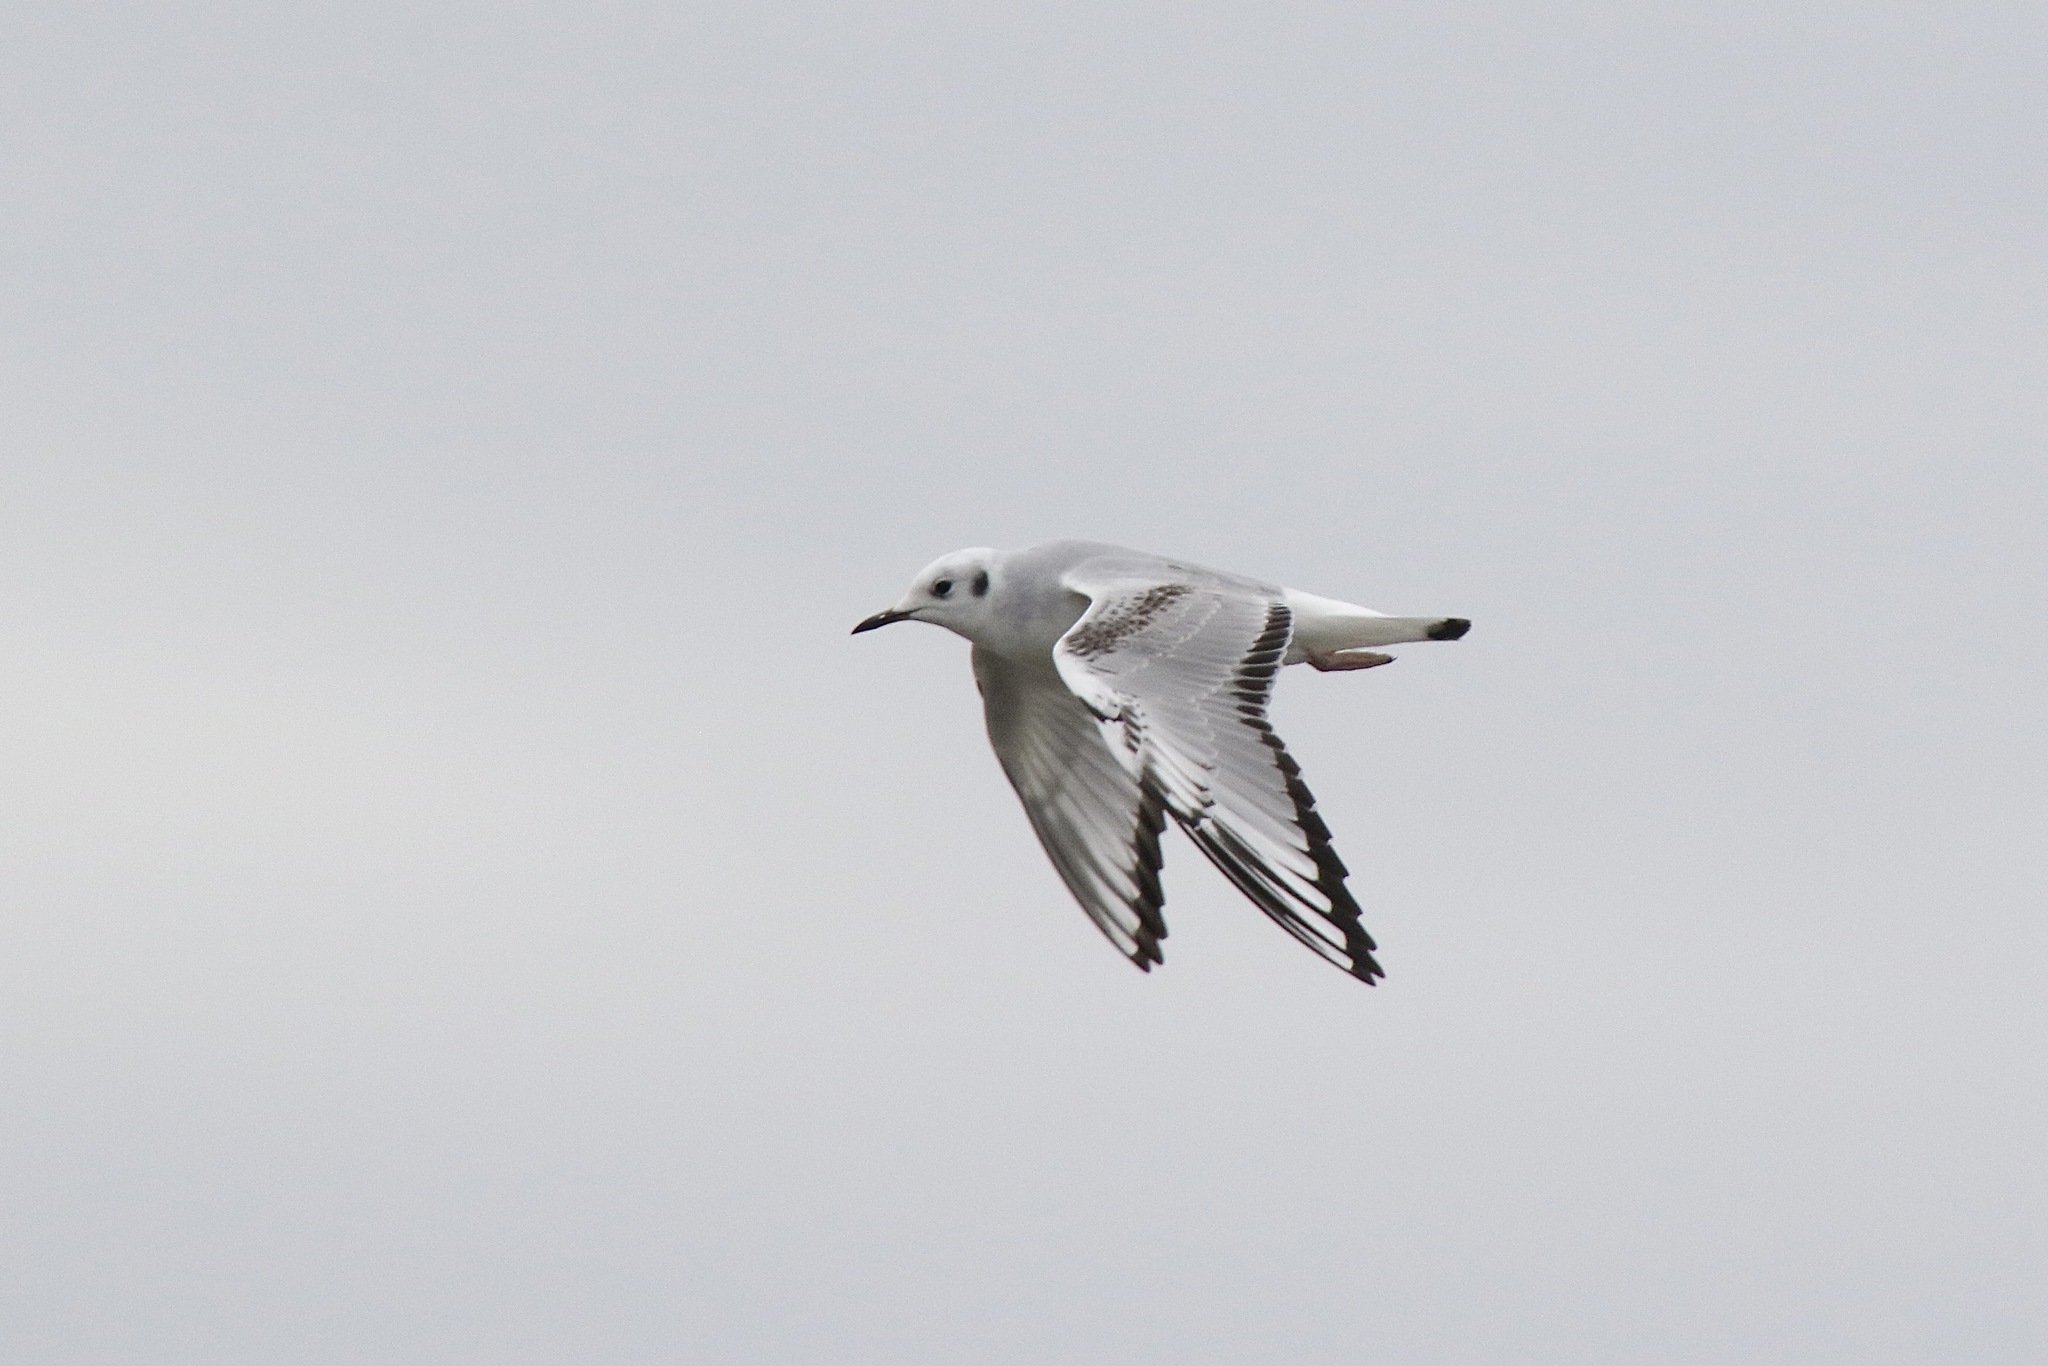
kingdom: Animalia
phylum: Chordata
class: Aves
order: Charadriiformes
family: Laridae
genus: Chroicocephalus
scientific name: Chroicocephalus philadelphia
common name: Bonaparte's gull
